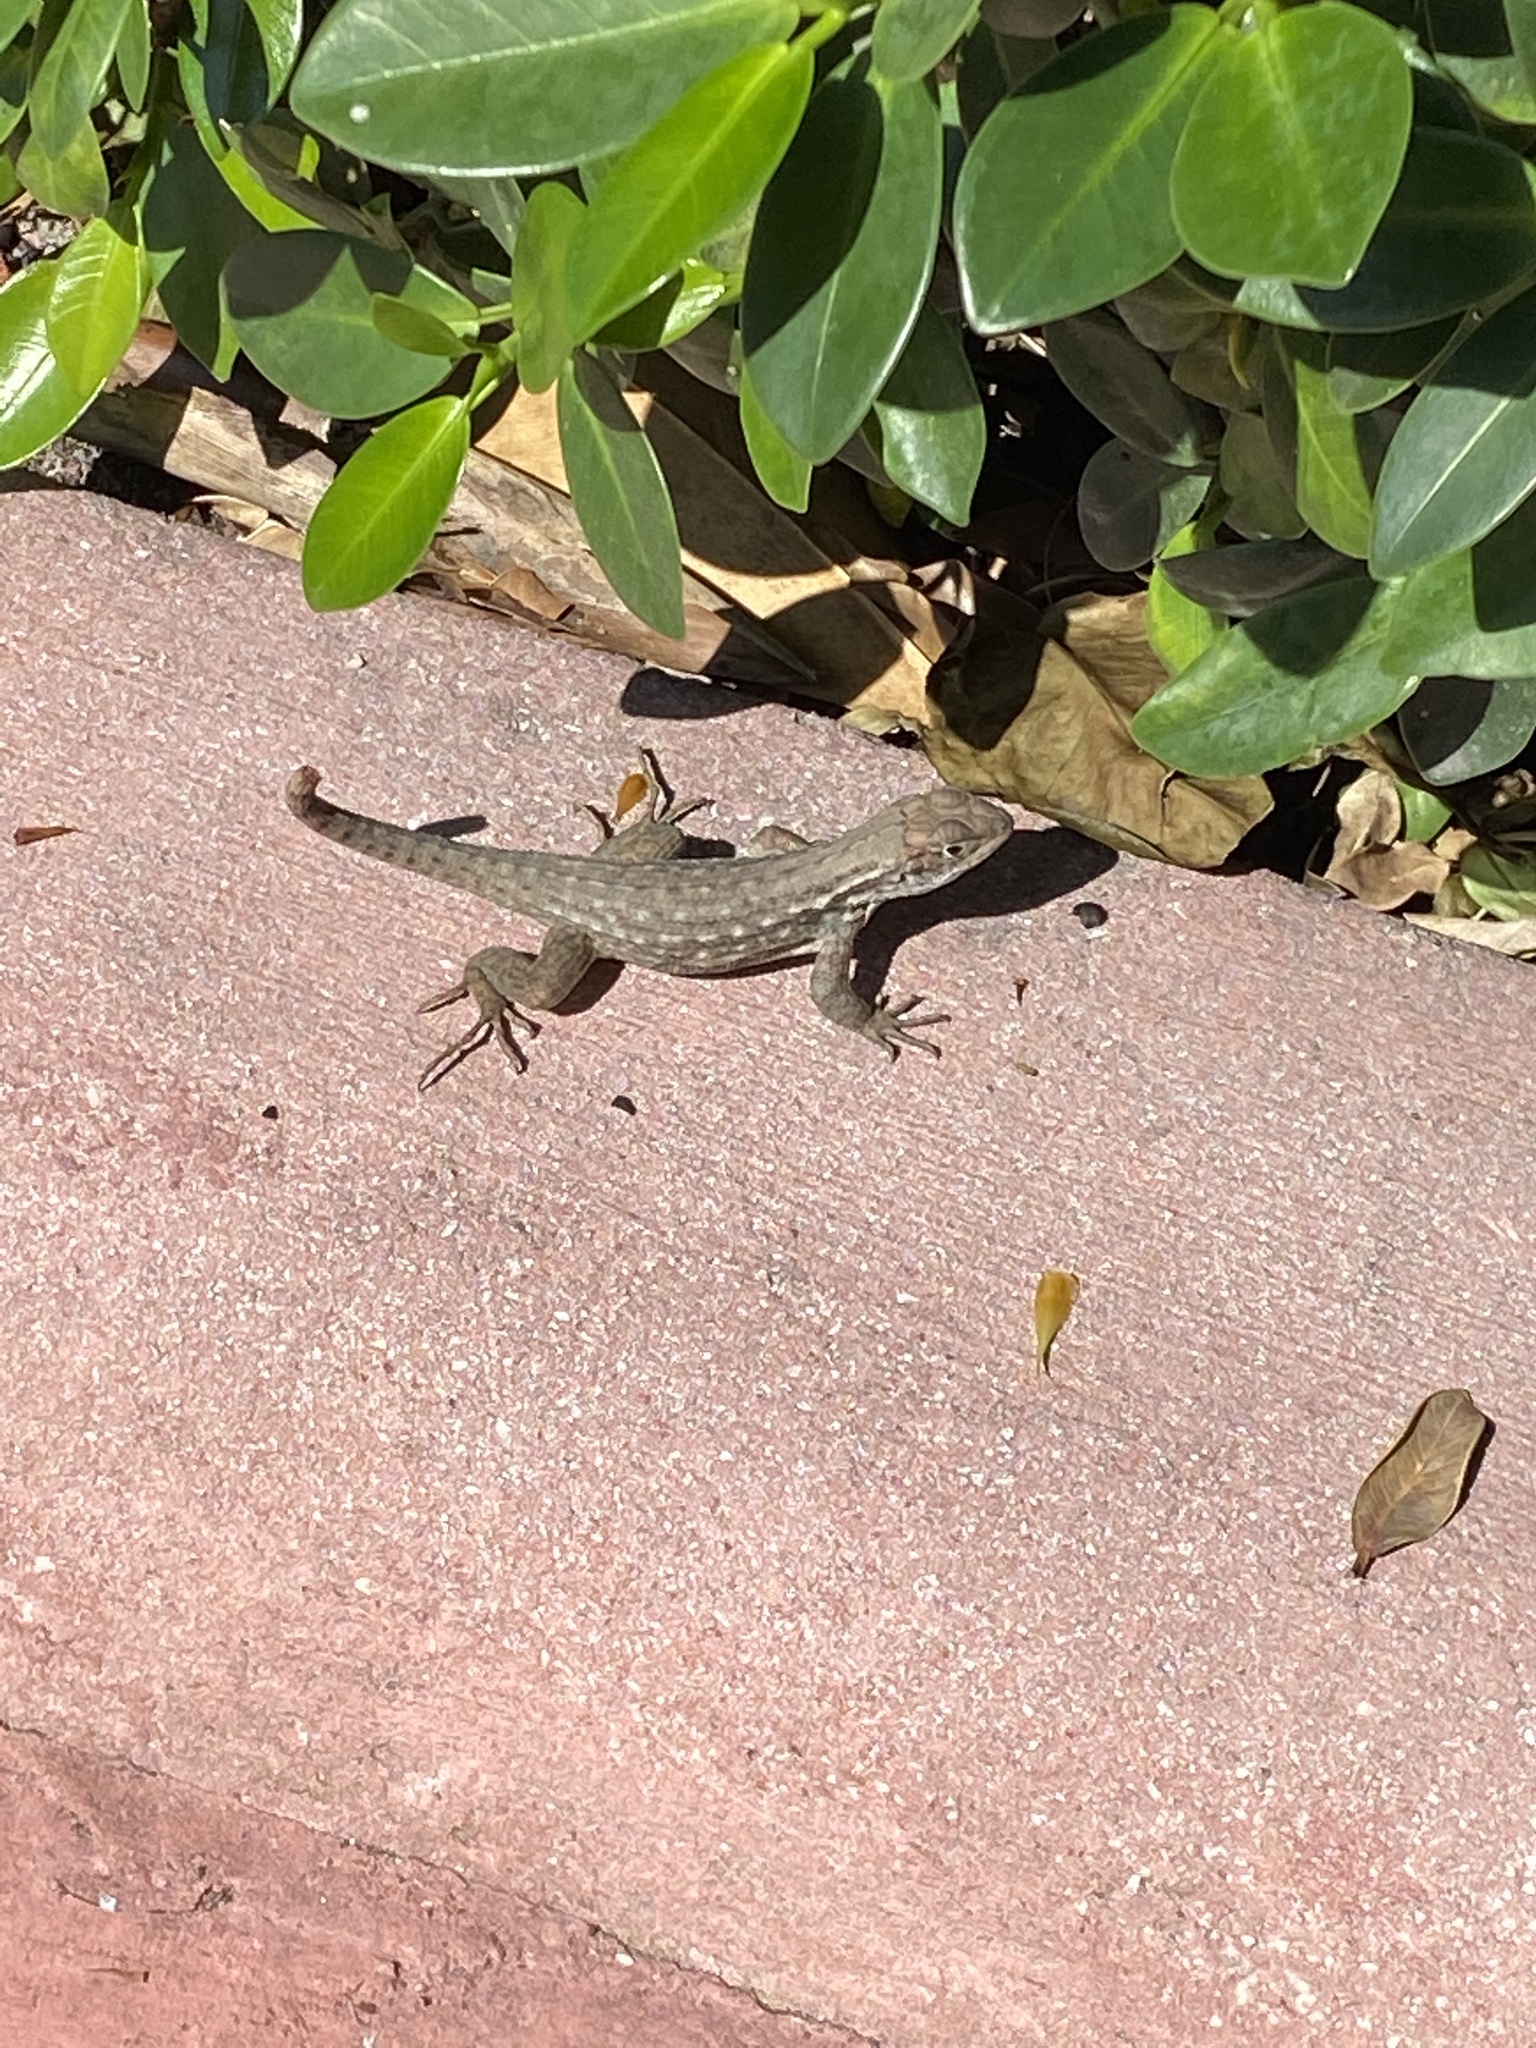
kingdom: Animalia
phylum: Chordata
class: Squamata
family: Leiocephalidae
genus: Leiocephalus
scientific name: Leiocephalus carinatus
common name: Northern curly-tailed lizard
